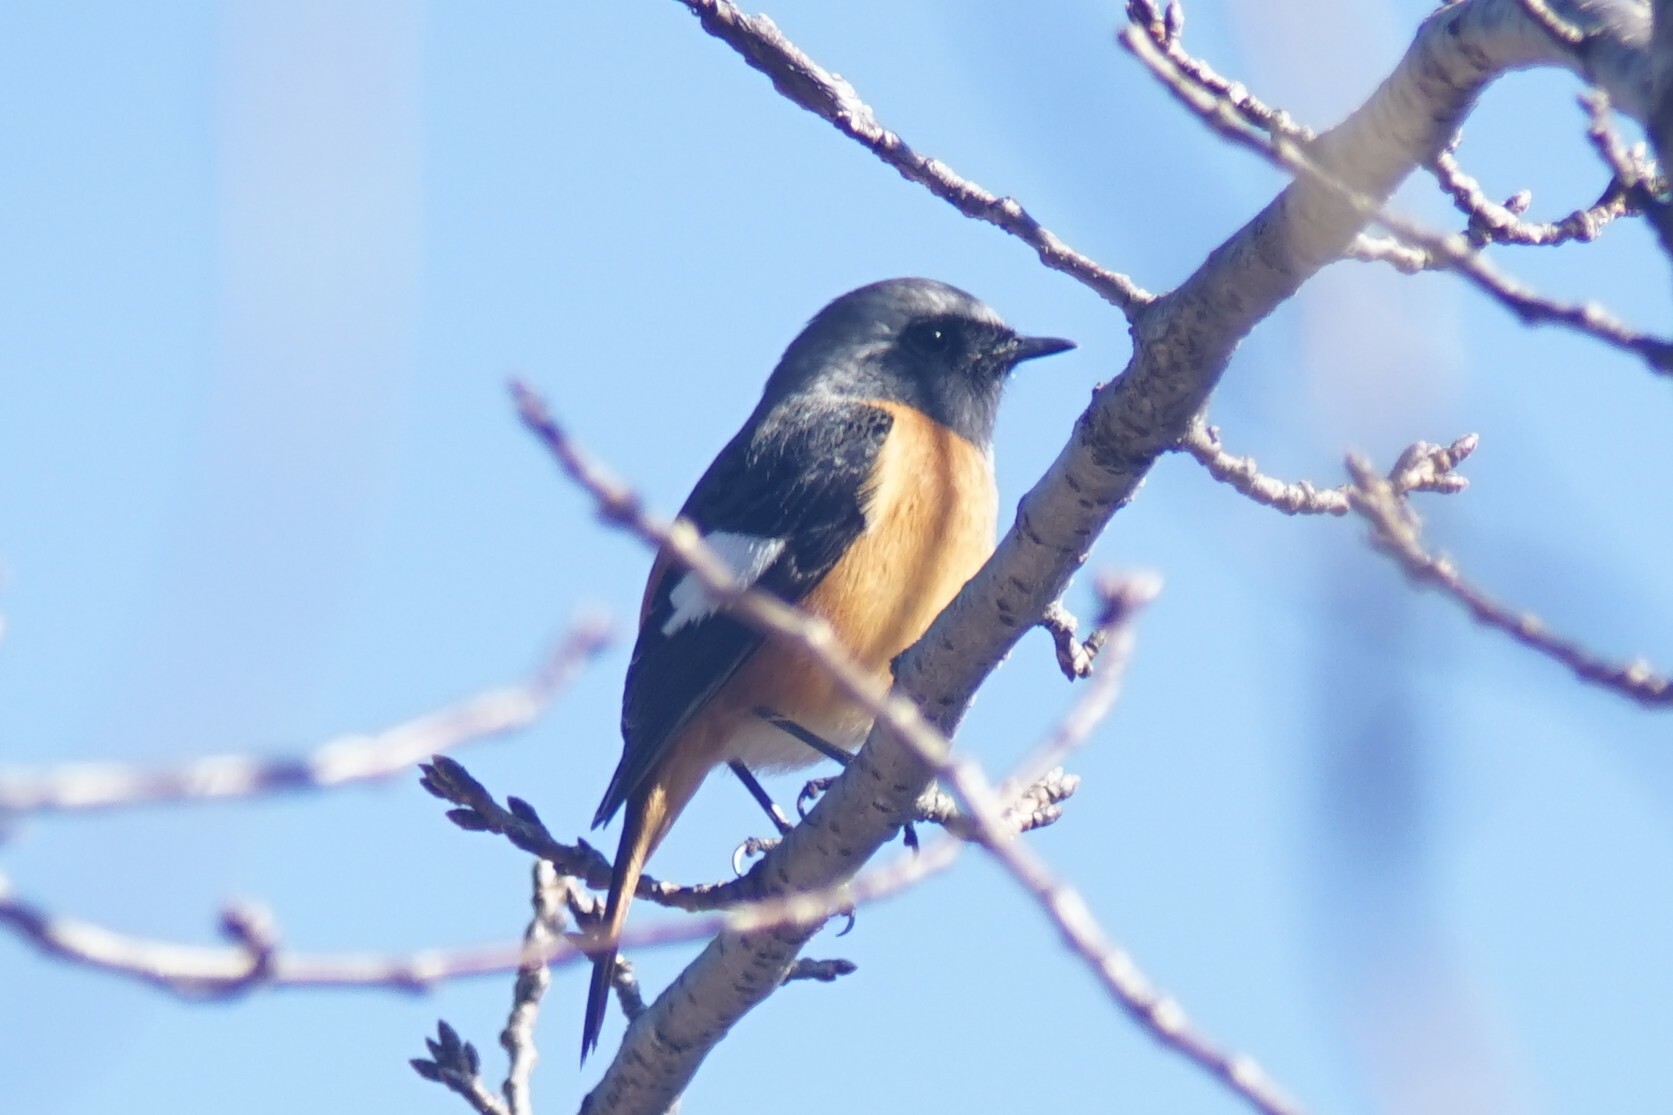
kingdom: Animalia
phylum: Chordata
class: Aves
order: Passeriformes
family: Muscicapidae
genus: Phoenicurus
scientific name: Phoenicurus auroreus
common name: Daurian redstart
